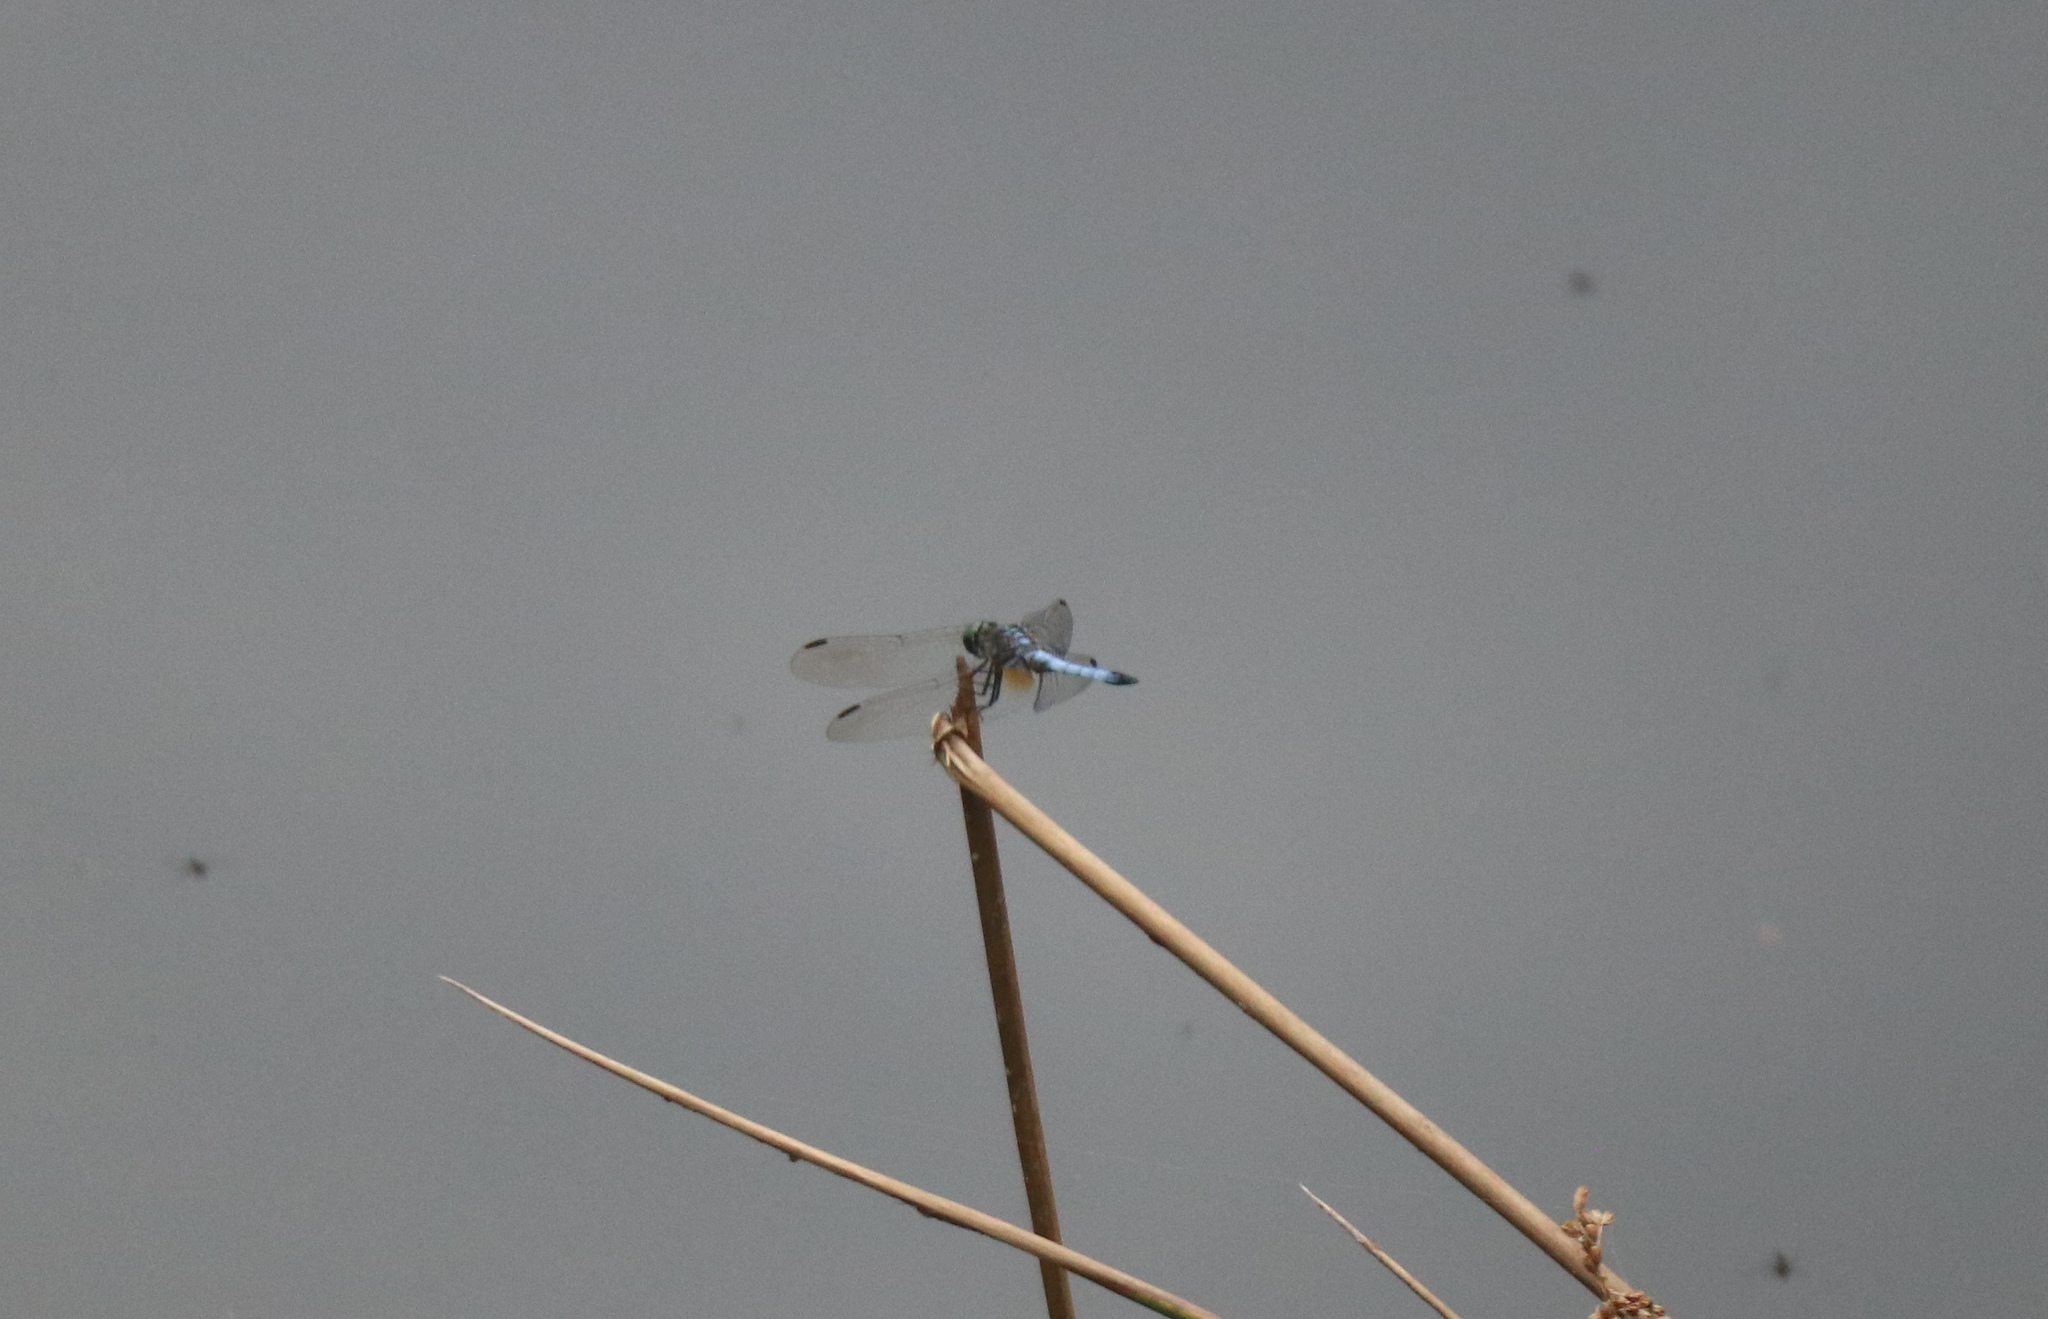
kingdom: Animalia
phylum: Arthropoda
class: Insecta
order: Odonata
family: Libellulidae
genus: Pachydiplax
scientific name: Pachydiplax longipennis
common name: Blue dasher
